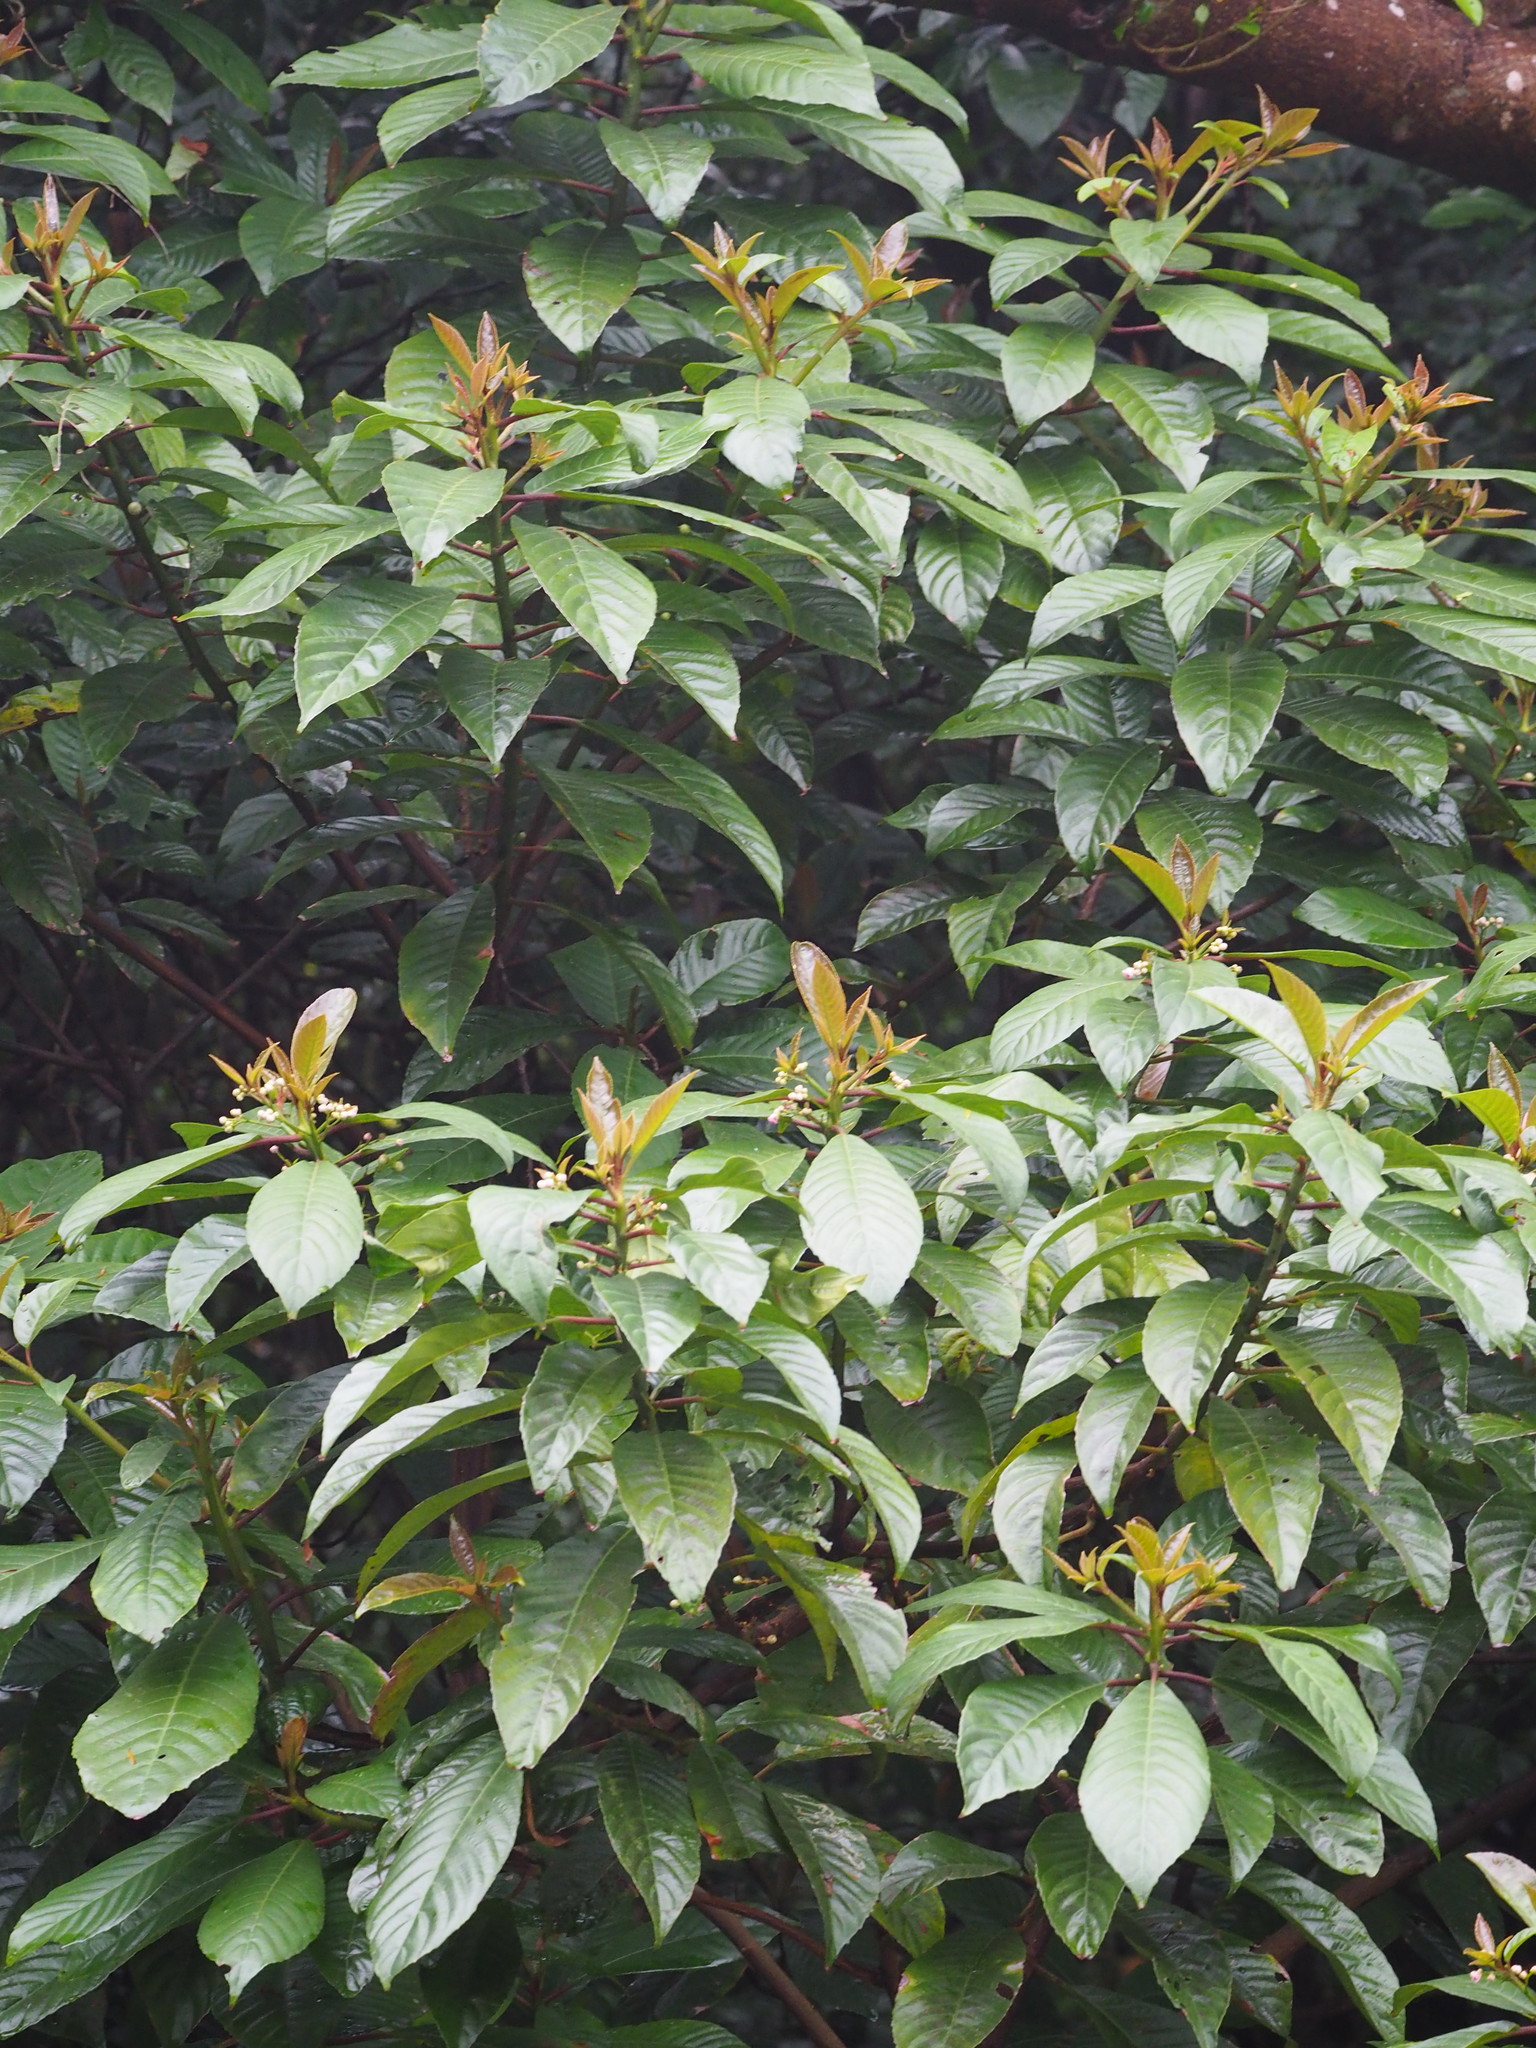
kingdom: Plantae
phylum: Tracheophyta
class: Magnoliopsida
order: Ericales
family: Actinidiaceae
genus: Saurauia
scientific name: Saurauia tristyla
